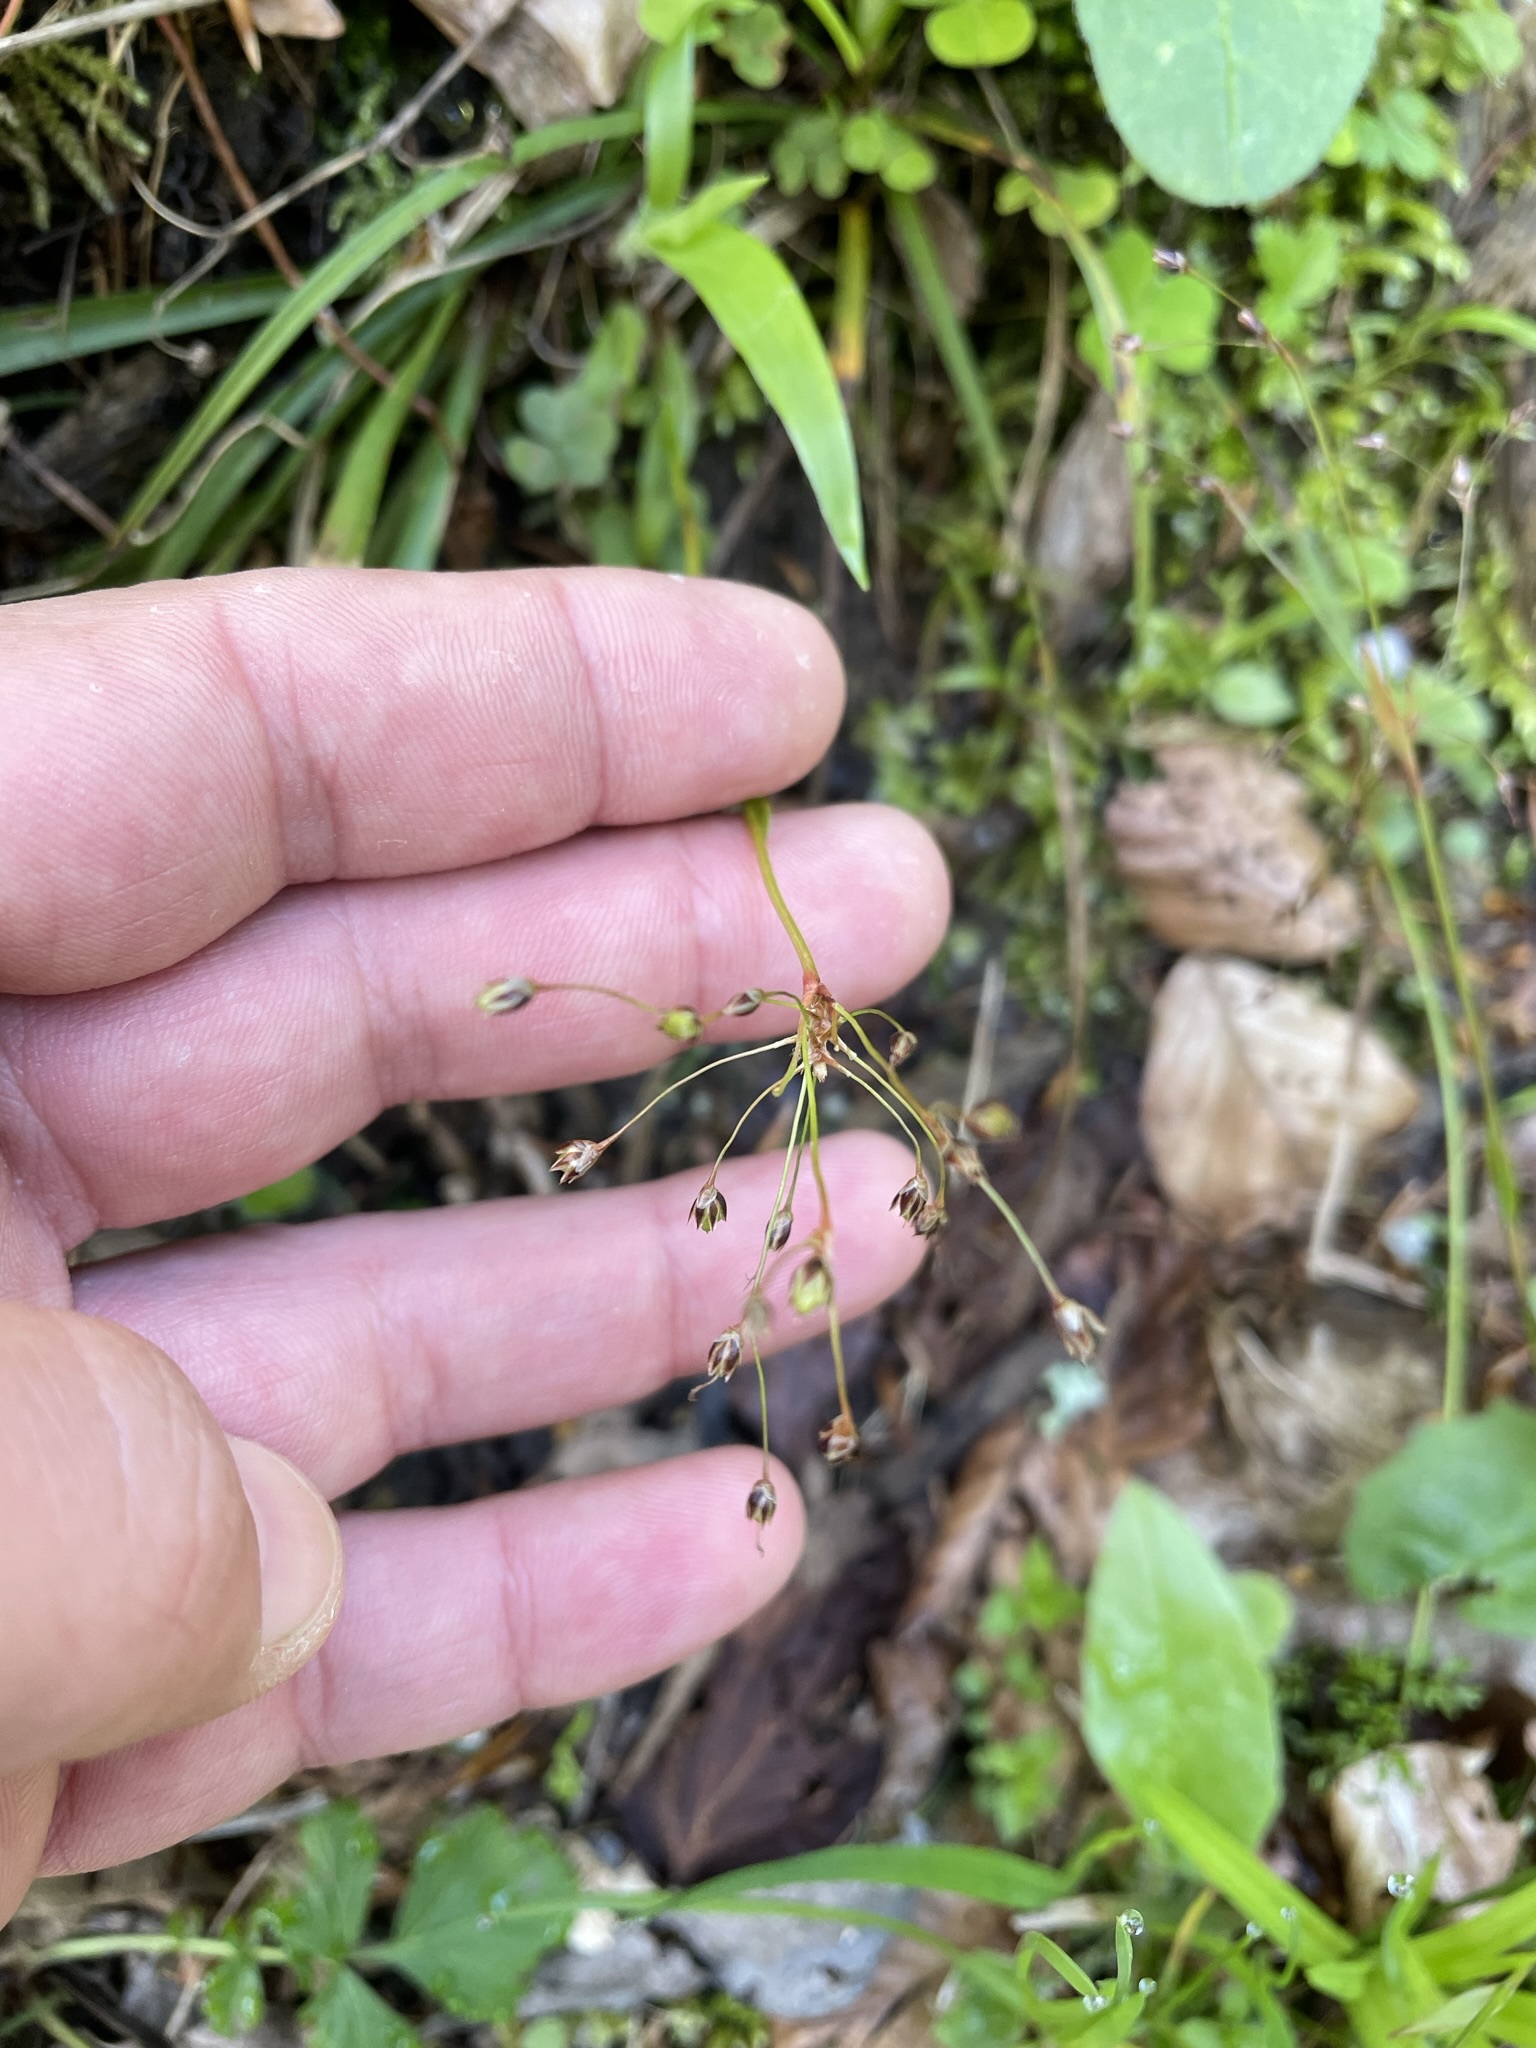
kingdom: Plantae
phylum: Tracheophyta
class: Liliopsida
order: Poales
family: Juncaceae
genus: Luzula
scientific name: Luzula pilosa
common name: Hairy wood-rush
